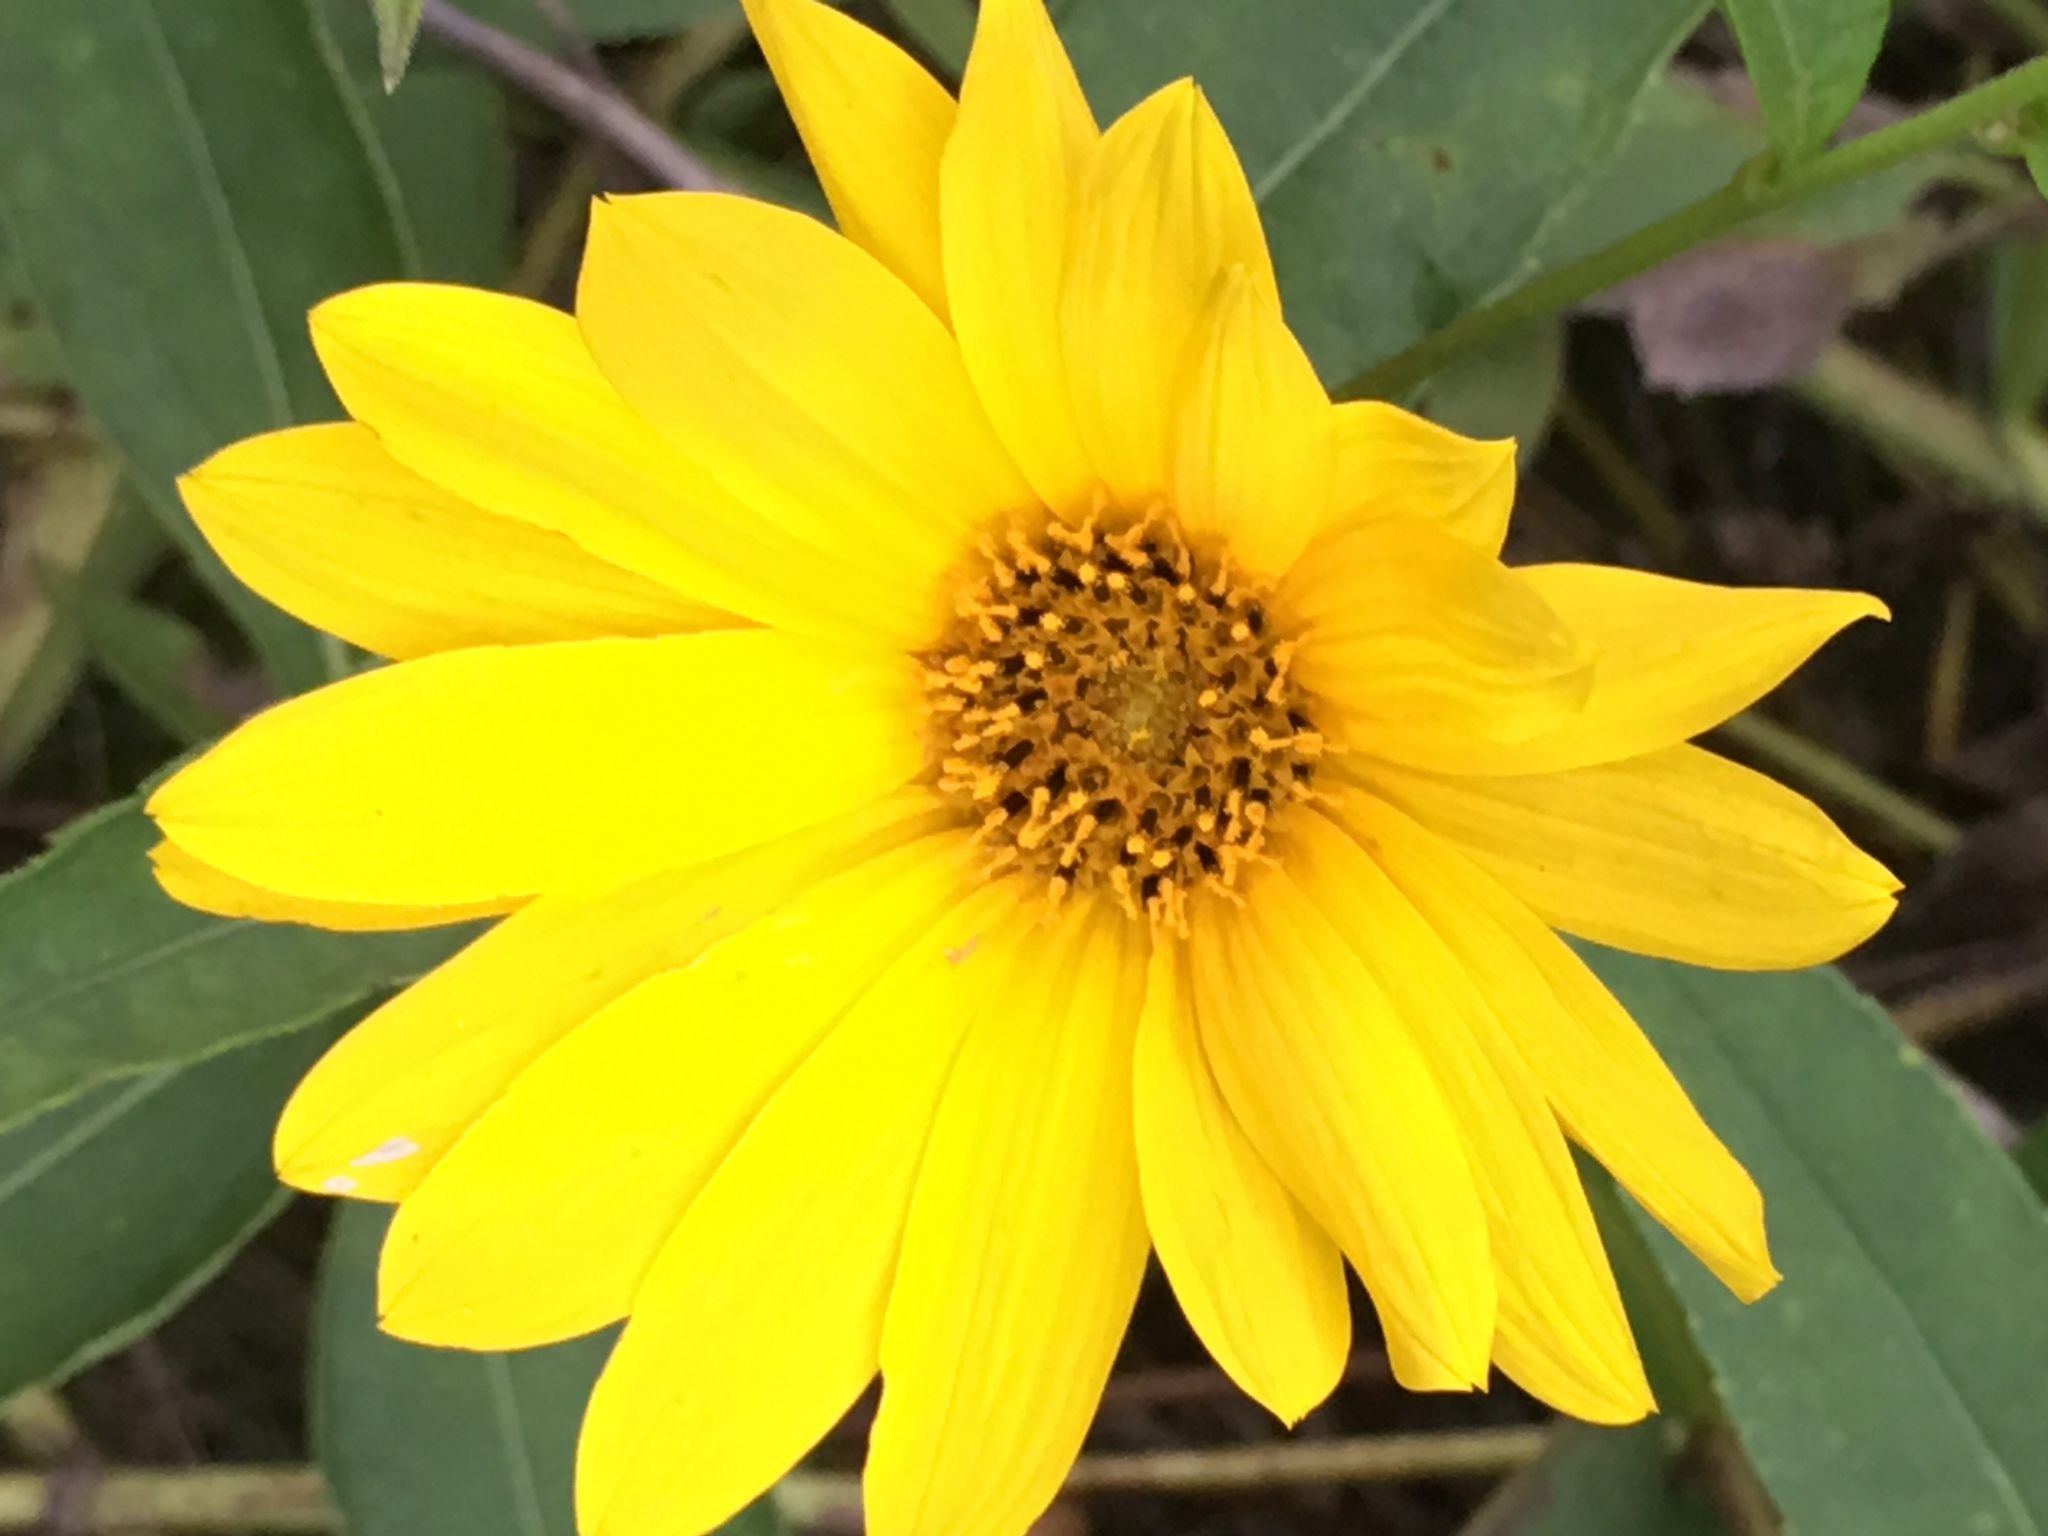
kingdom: Plantae
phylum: Tracheophyta
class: Magnoliopsida
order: Asterales
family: Asteraceae
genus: Helianthus
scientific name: Helianthus divaricatus
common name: Divergent sunflower
